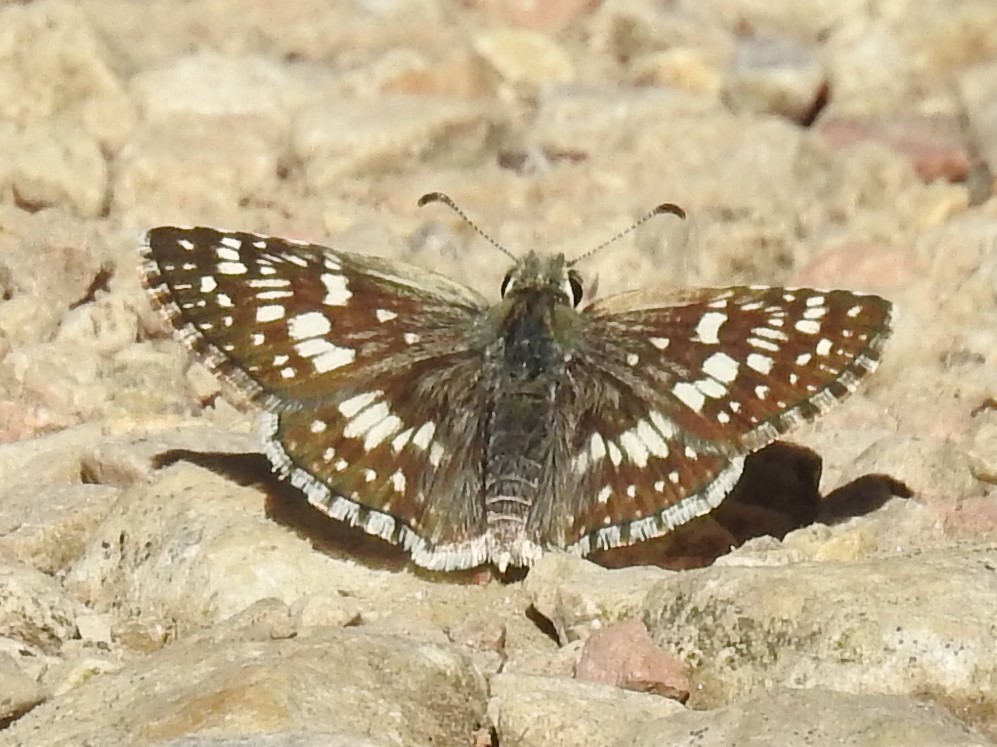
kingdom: Animalia
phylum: Arthropoda
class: Insecta
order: Lepidoptera
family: Hesperiidae
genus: Burnsius
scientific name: Burnsius communis
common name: Common checkered-skipper
